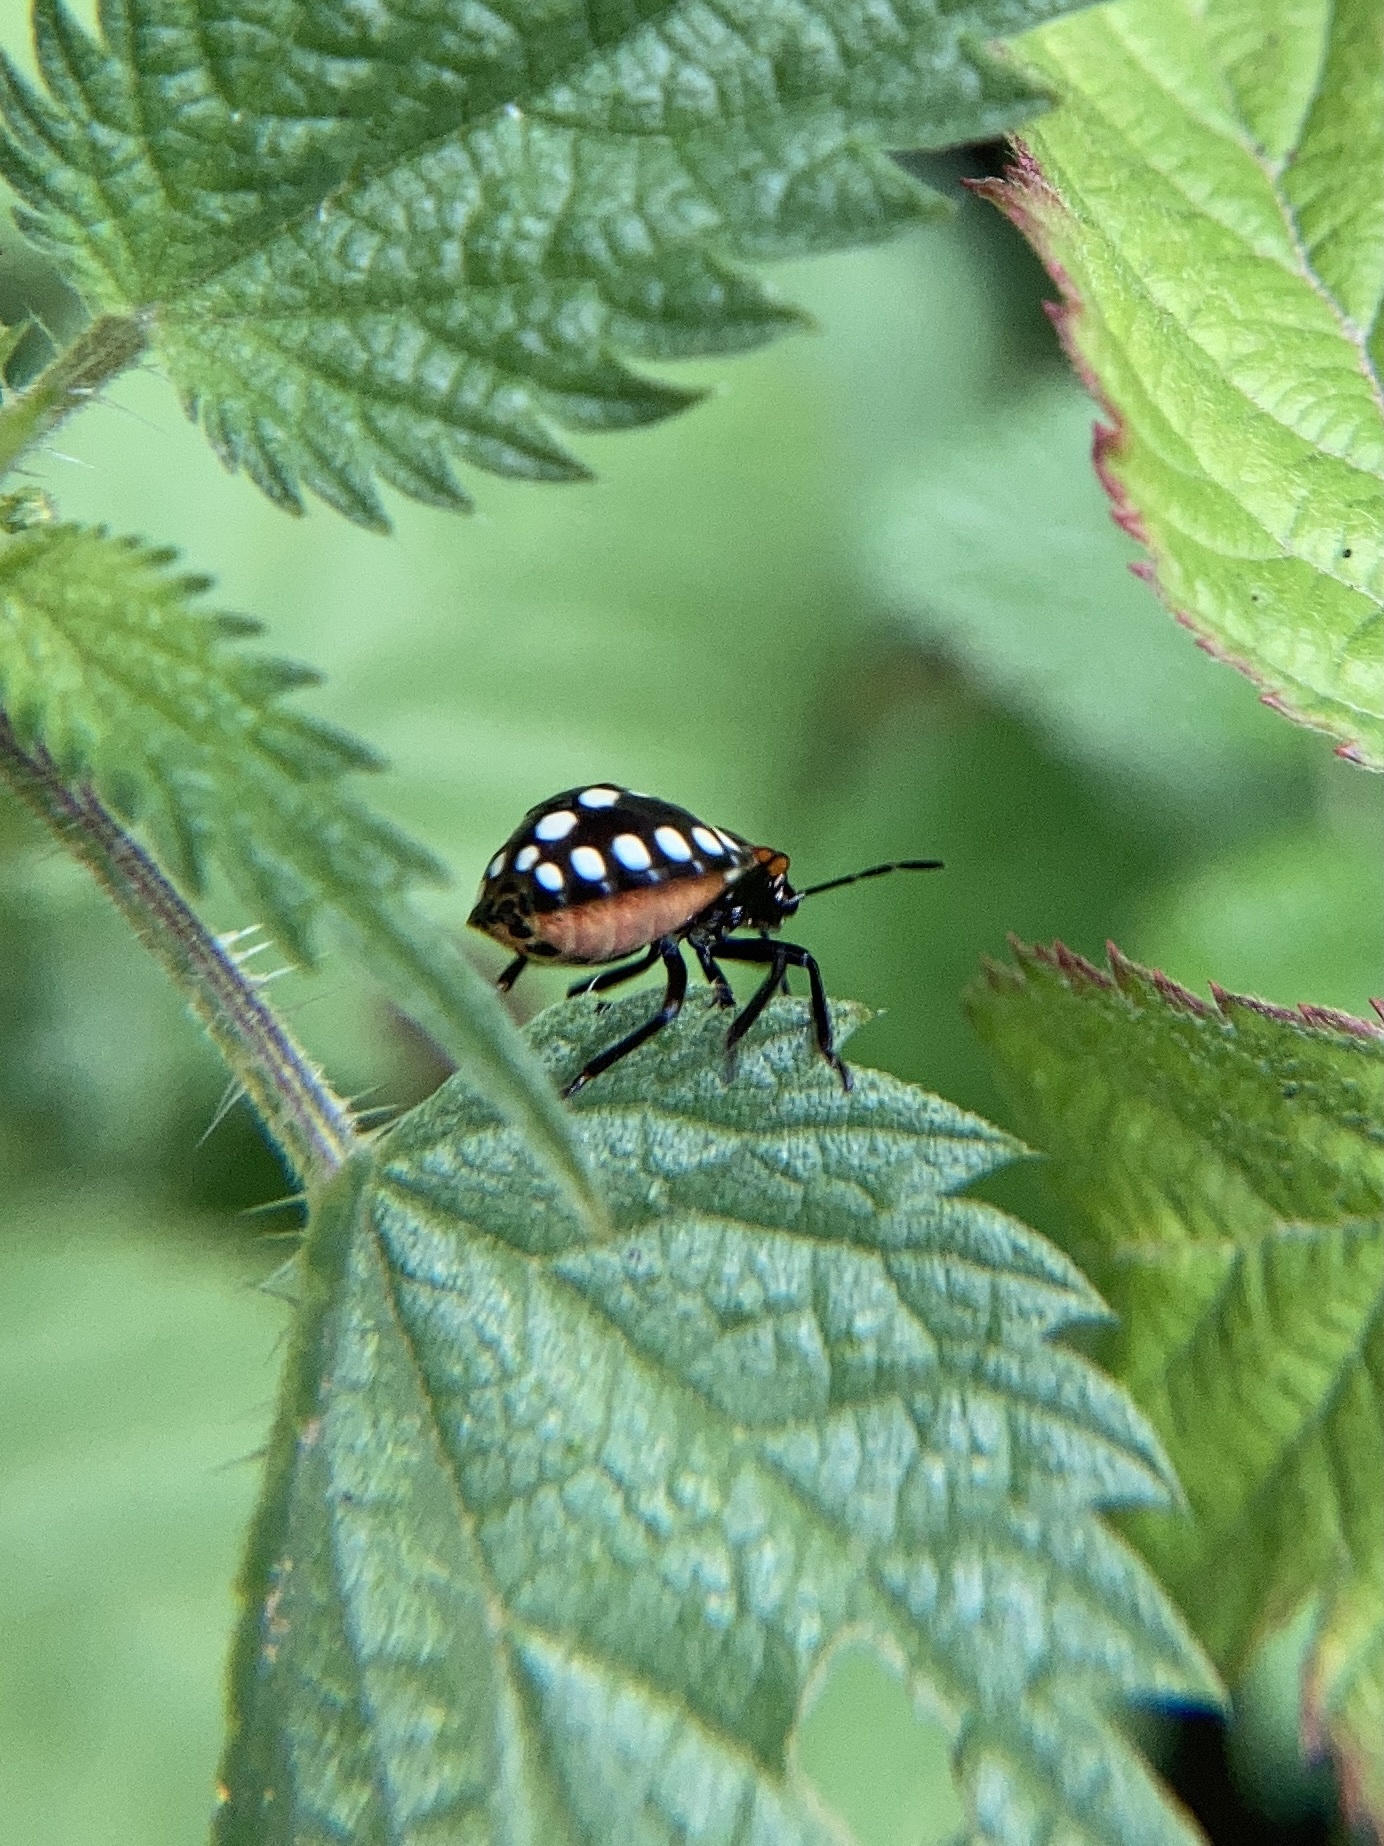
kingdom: Animalia
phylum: Arthropoda
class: Insecta
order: Hemiptera
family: Pentatomidae
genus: Nezara
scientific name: Nezara viridula
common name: Southern green stink bug
